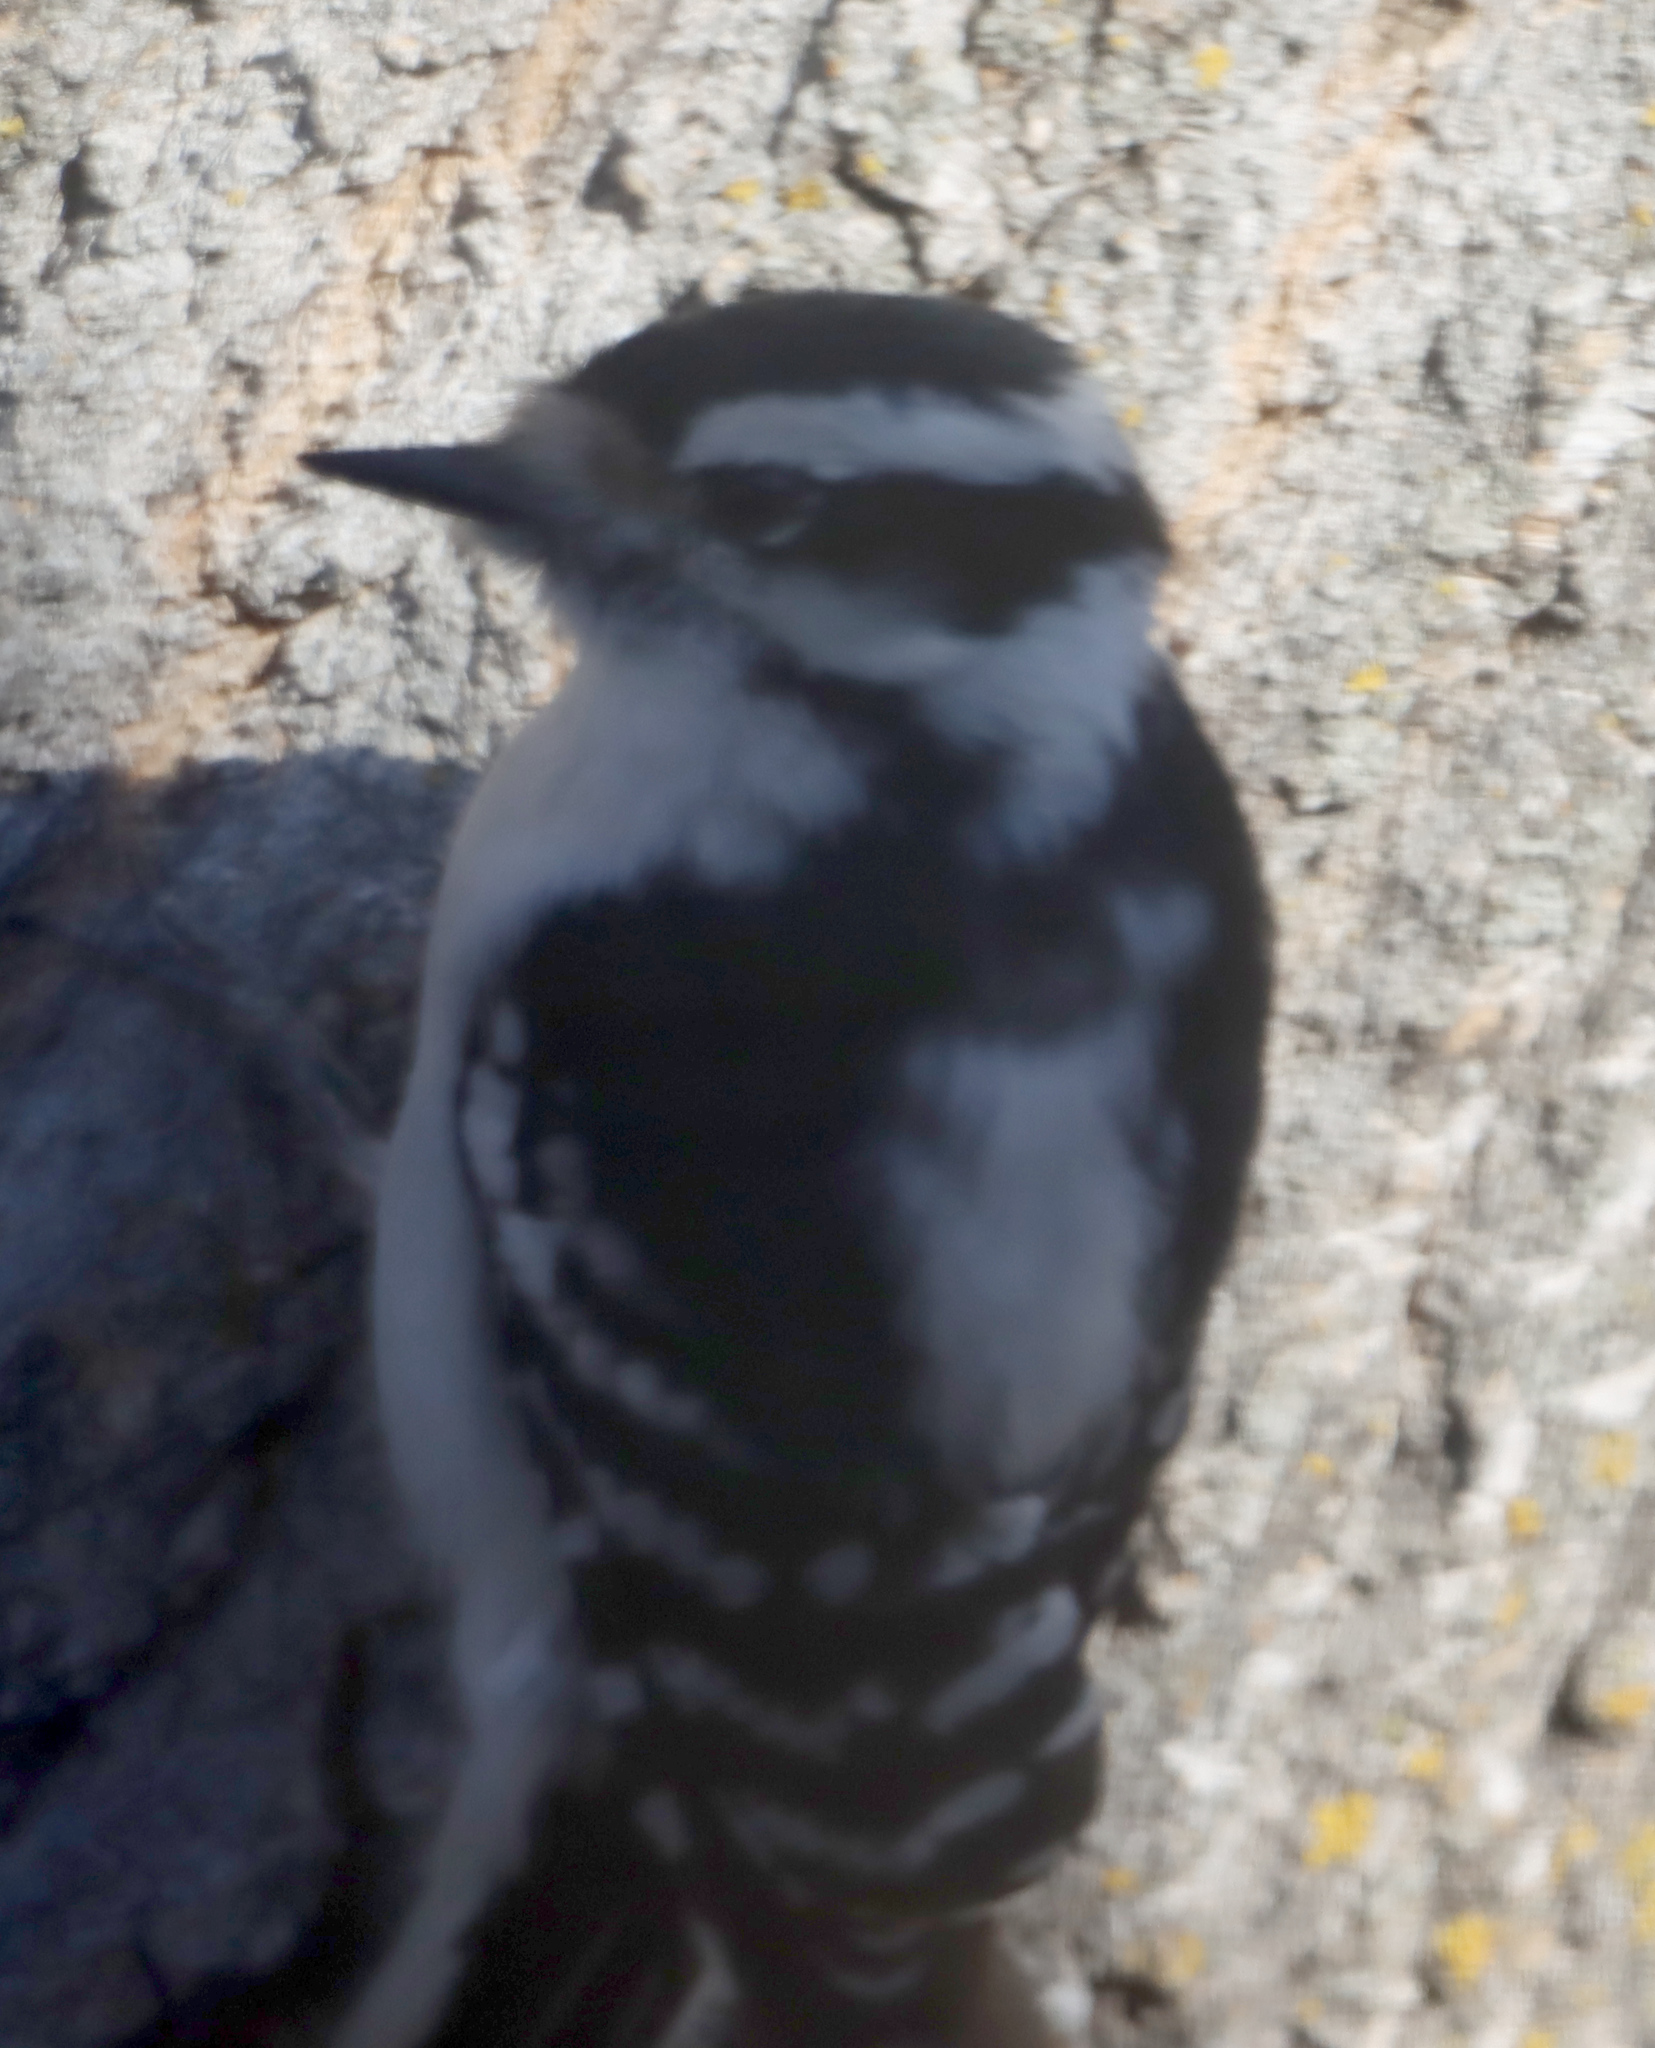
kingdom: Animalia
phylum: Chordata
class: Aves
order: Piciformes
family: Picidae
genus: Dryobates
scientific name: Dryobates pubescens
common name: Downy woodpecker
